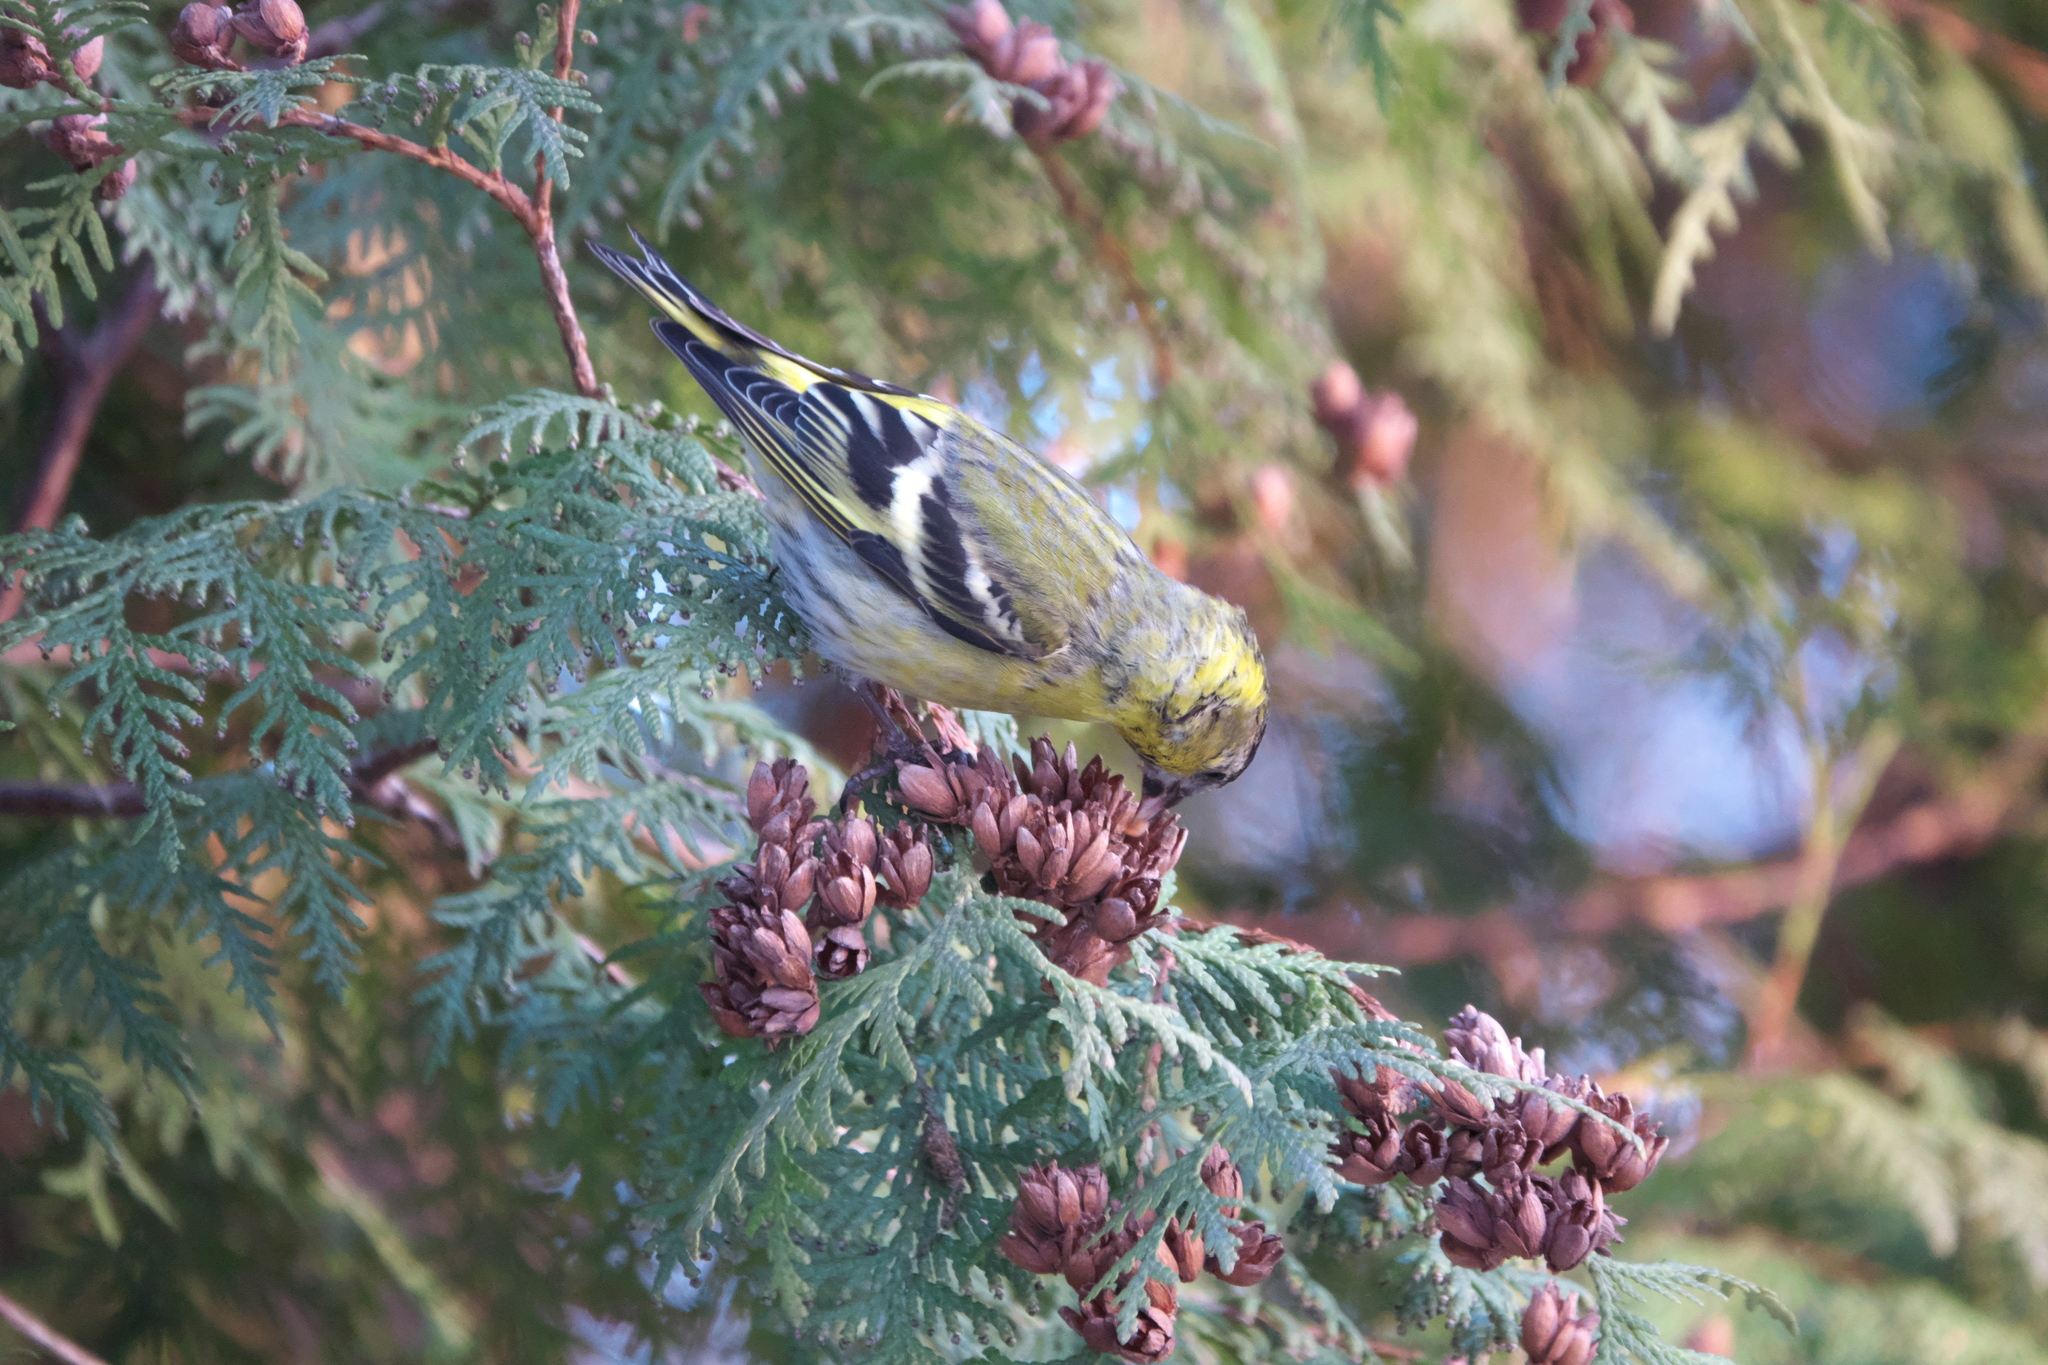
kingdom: Animalia
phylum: Chordata
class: Aves
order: Passeriformes
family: Fringillidae
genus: Spinus
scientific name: Spinus spinus
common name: Eurasian siskin
